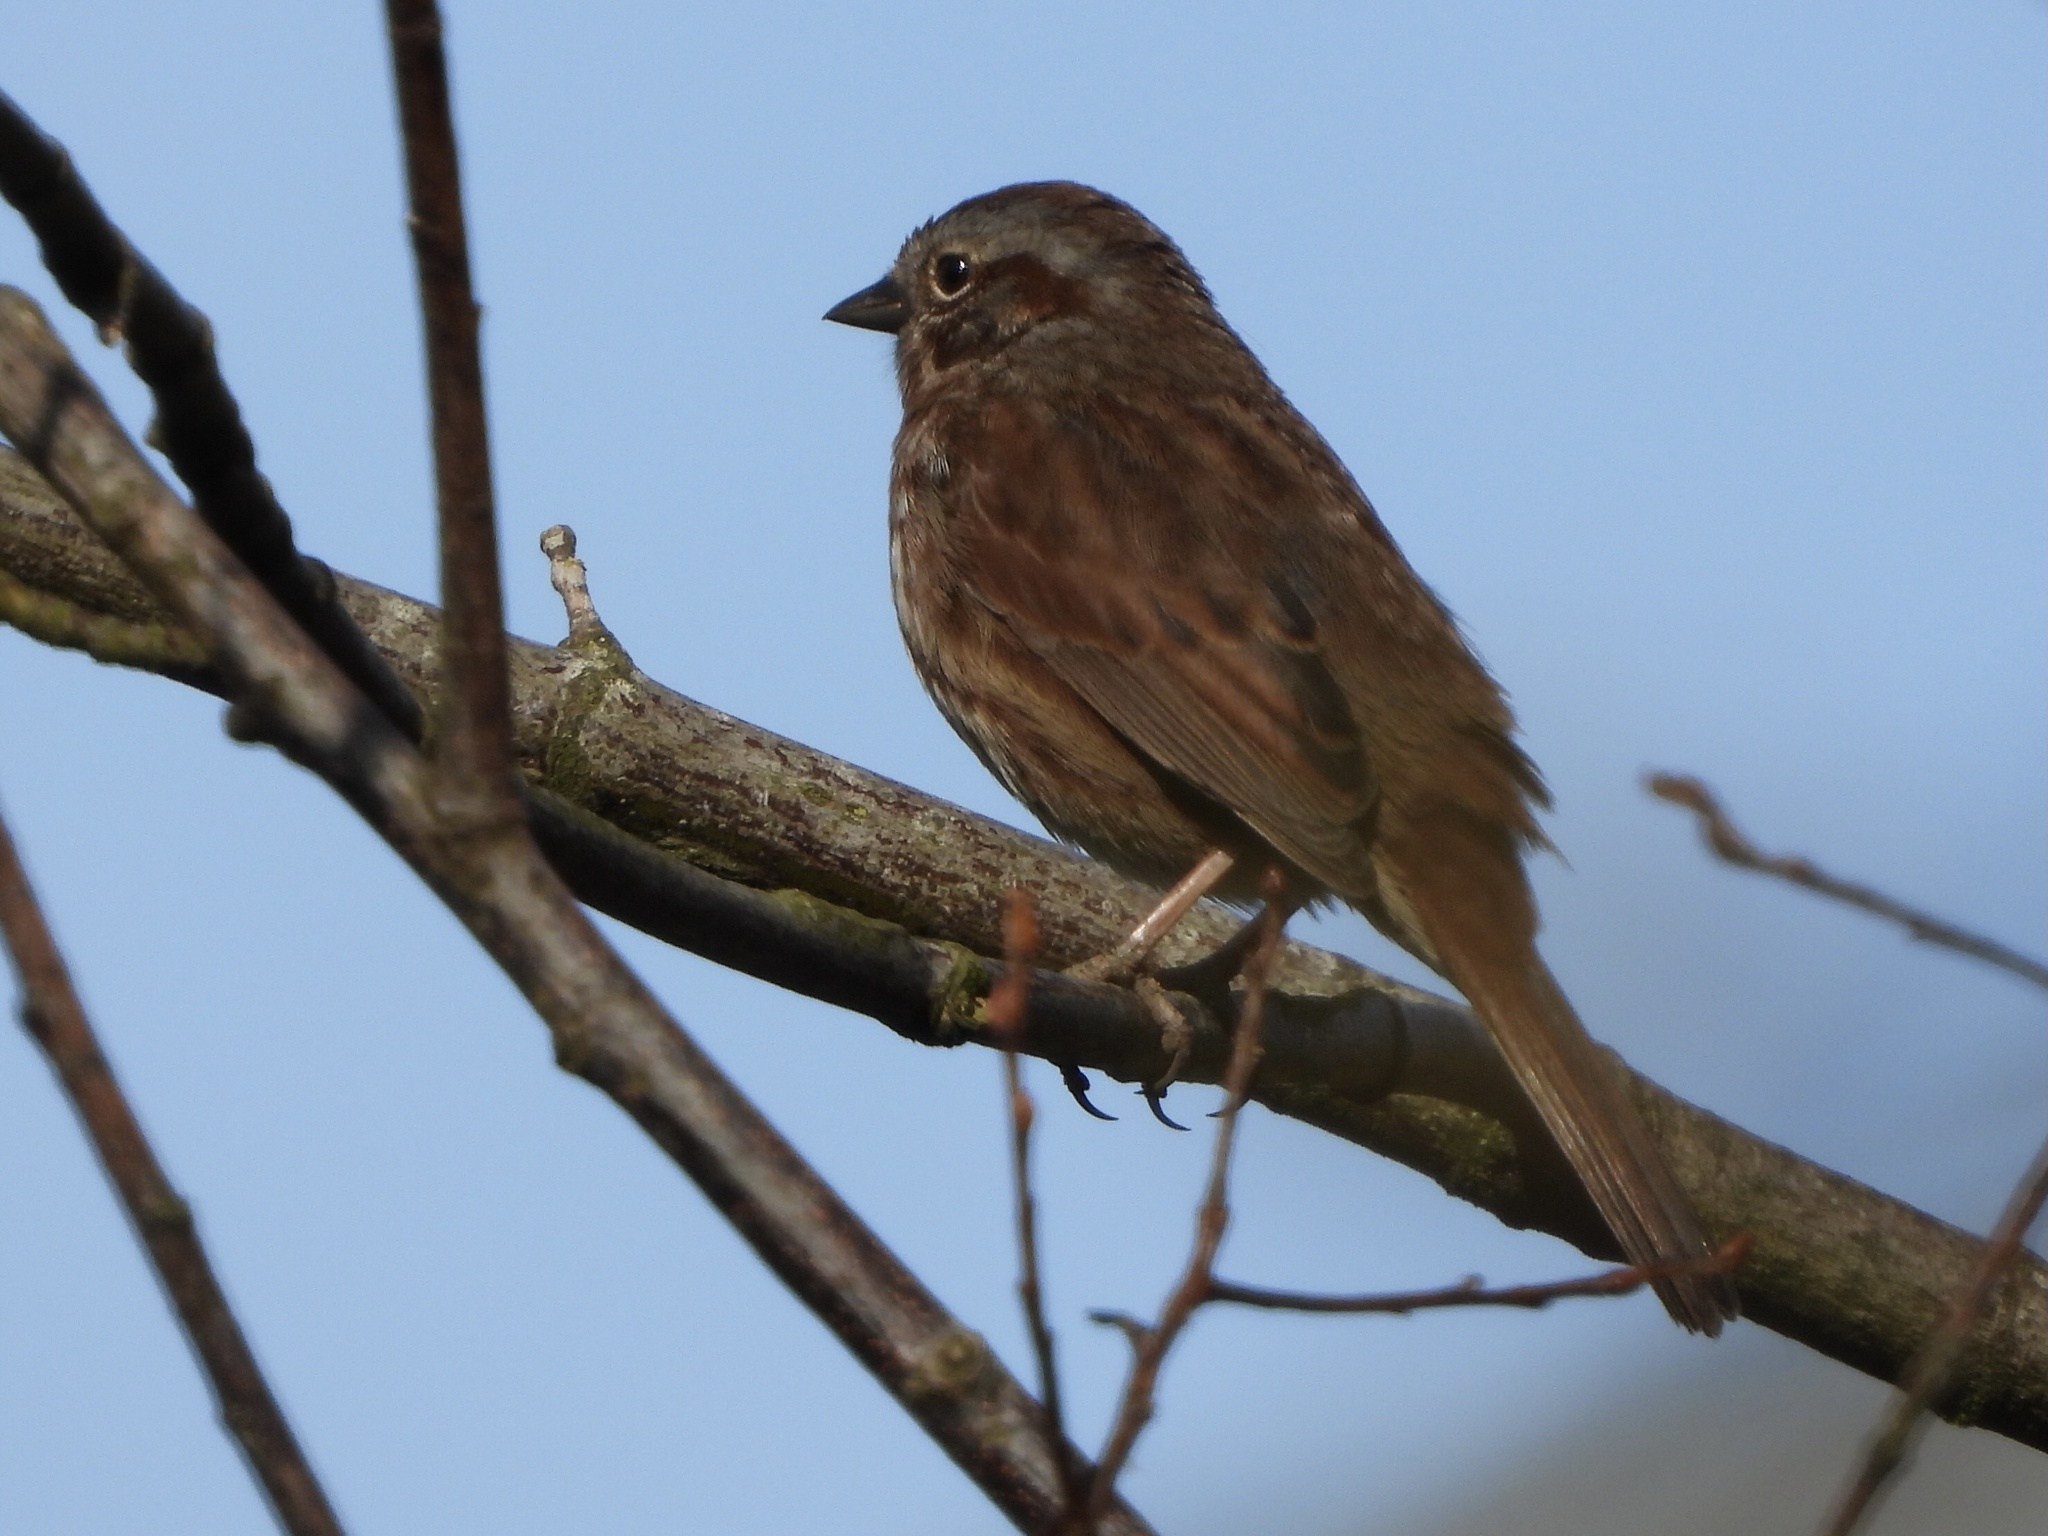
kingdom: Animalia
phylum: Chordata
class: Aves
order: Passeriformes
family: Passerellidae
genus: Melospiza
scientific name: Melospiza melodia
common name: Song sparrow
